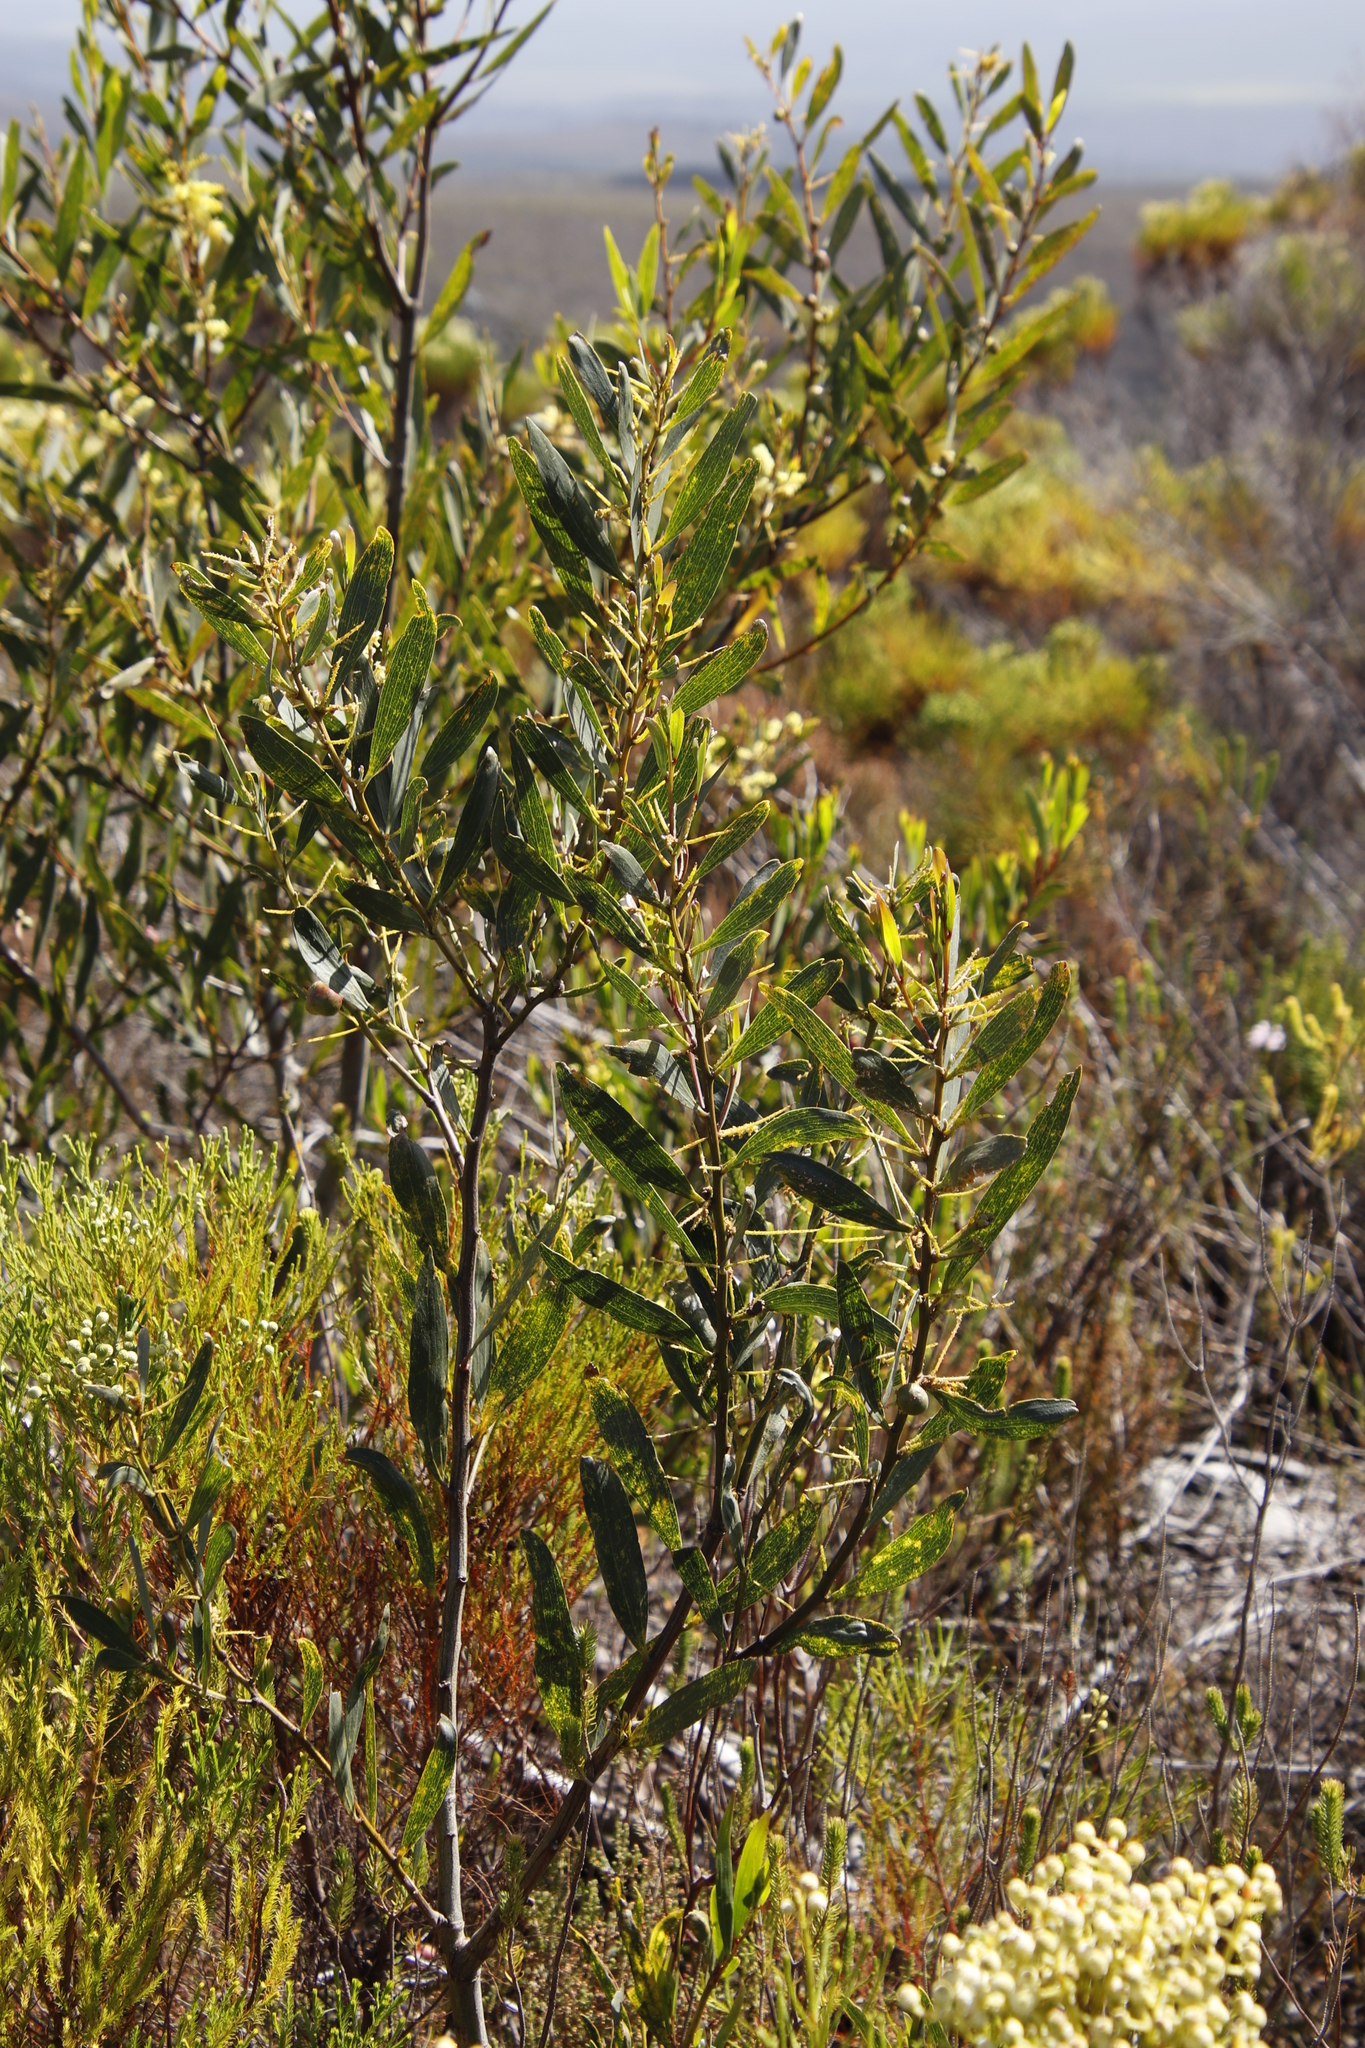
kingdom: Plantae
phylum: Tracheophyta
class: Magnoliopsida
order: Fabales
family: Fabaceae
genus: Acacia
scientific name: Acacia longifolia
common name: Sydney golden wattle
